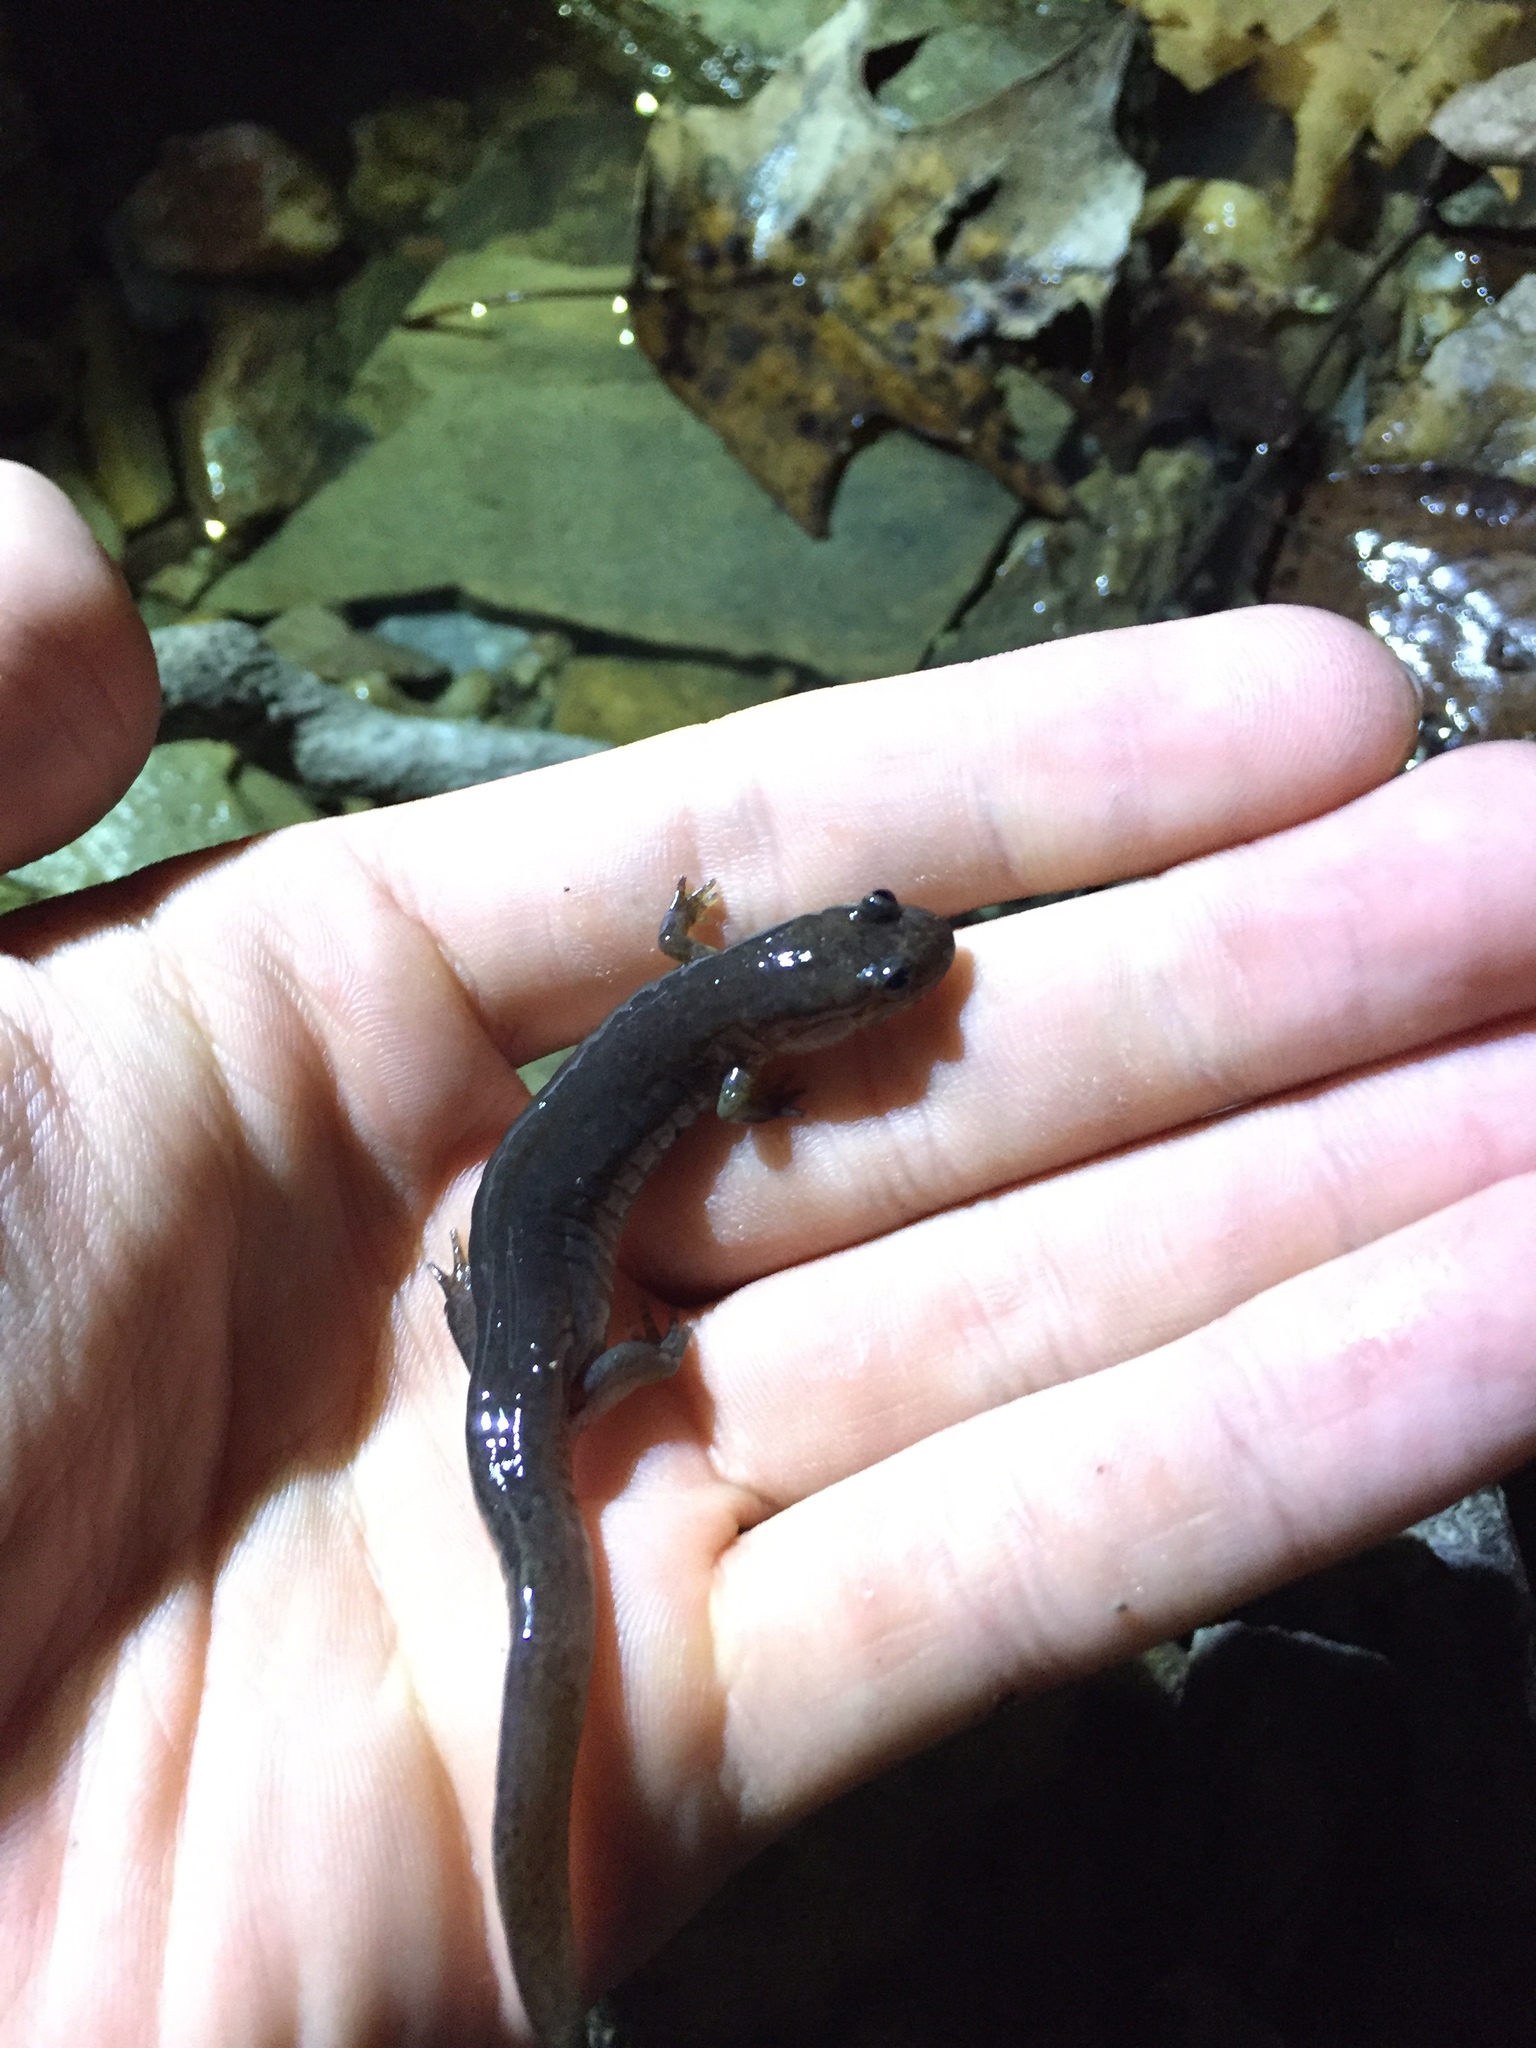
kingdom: Animalia
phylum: Chordata
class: Amphibia
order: Caudata
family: Plethodontidae
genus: Desmognathus
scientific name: Desmognathus brimleyorum
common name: Ouachita dusky salamander
